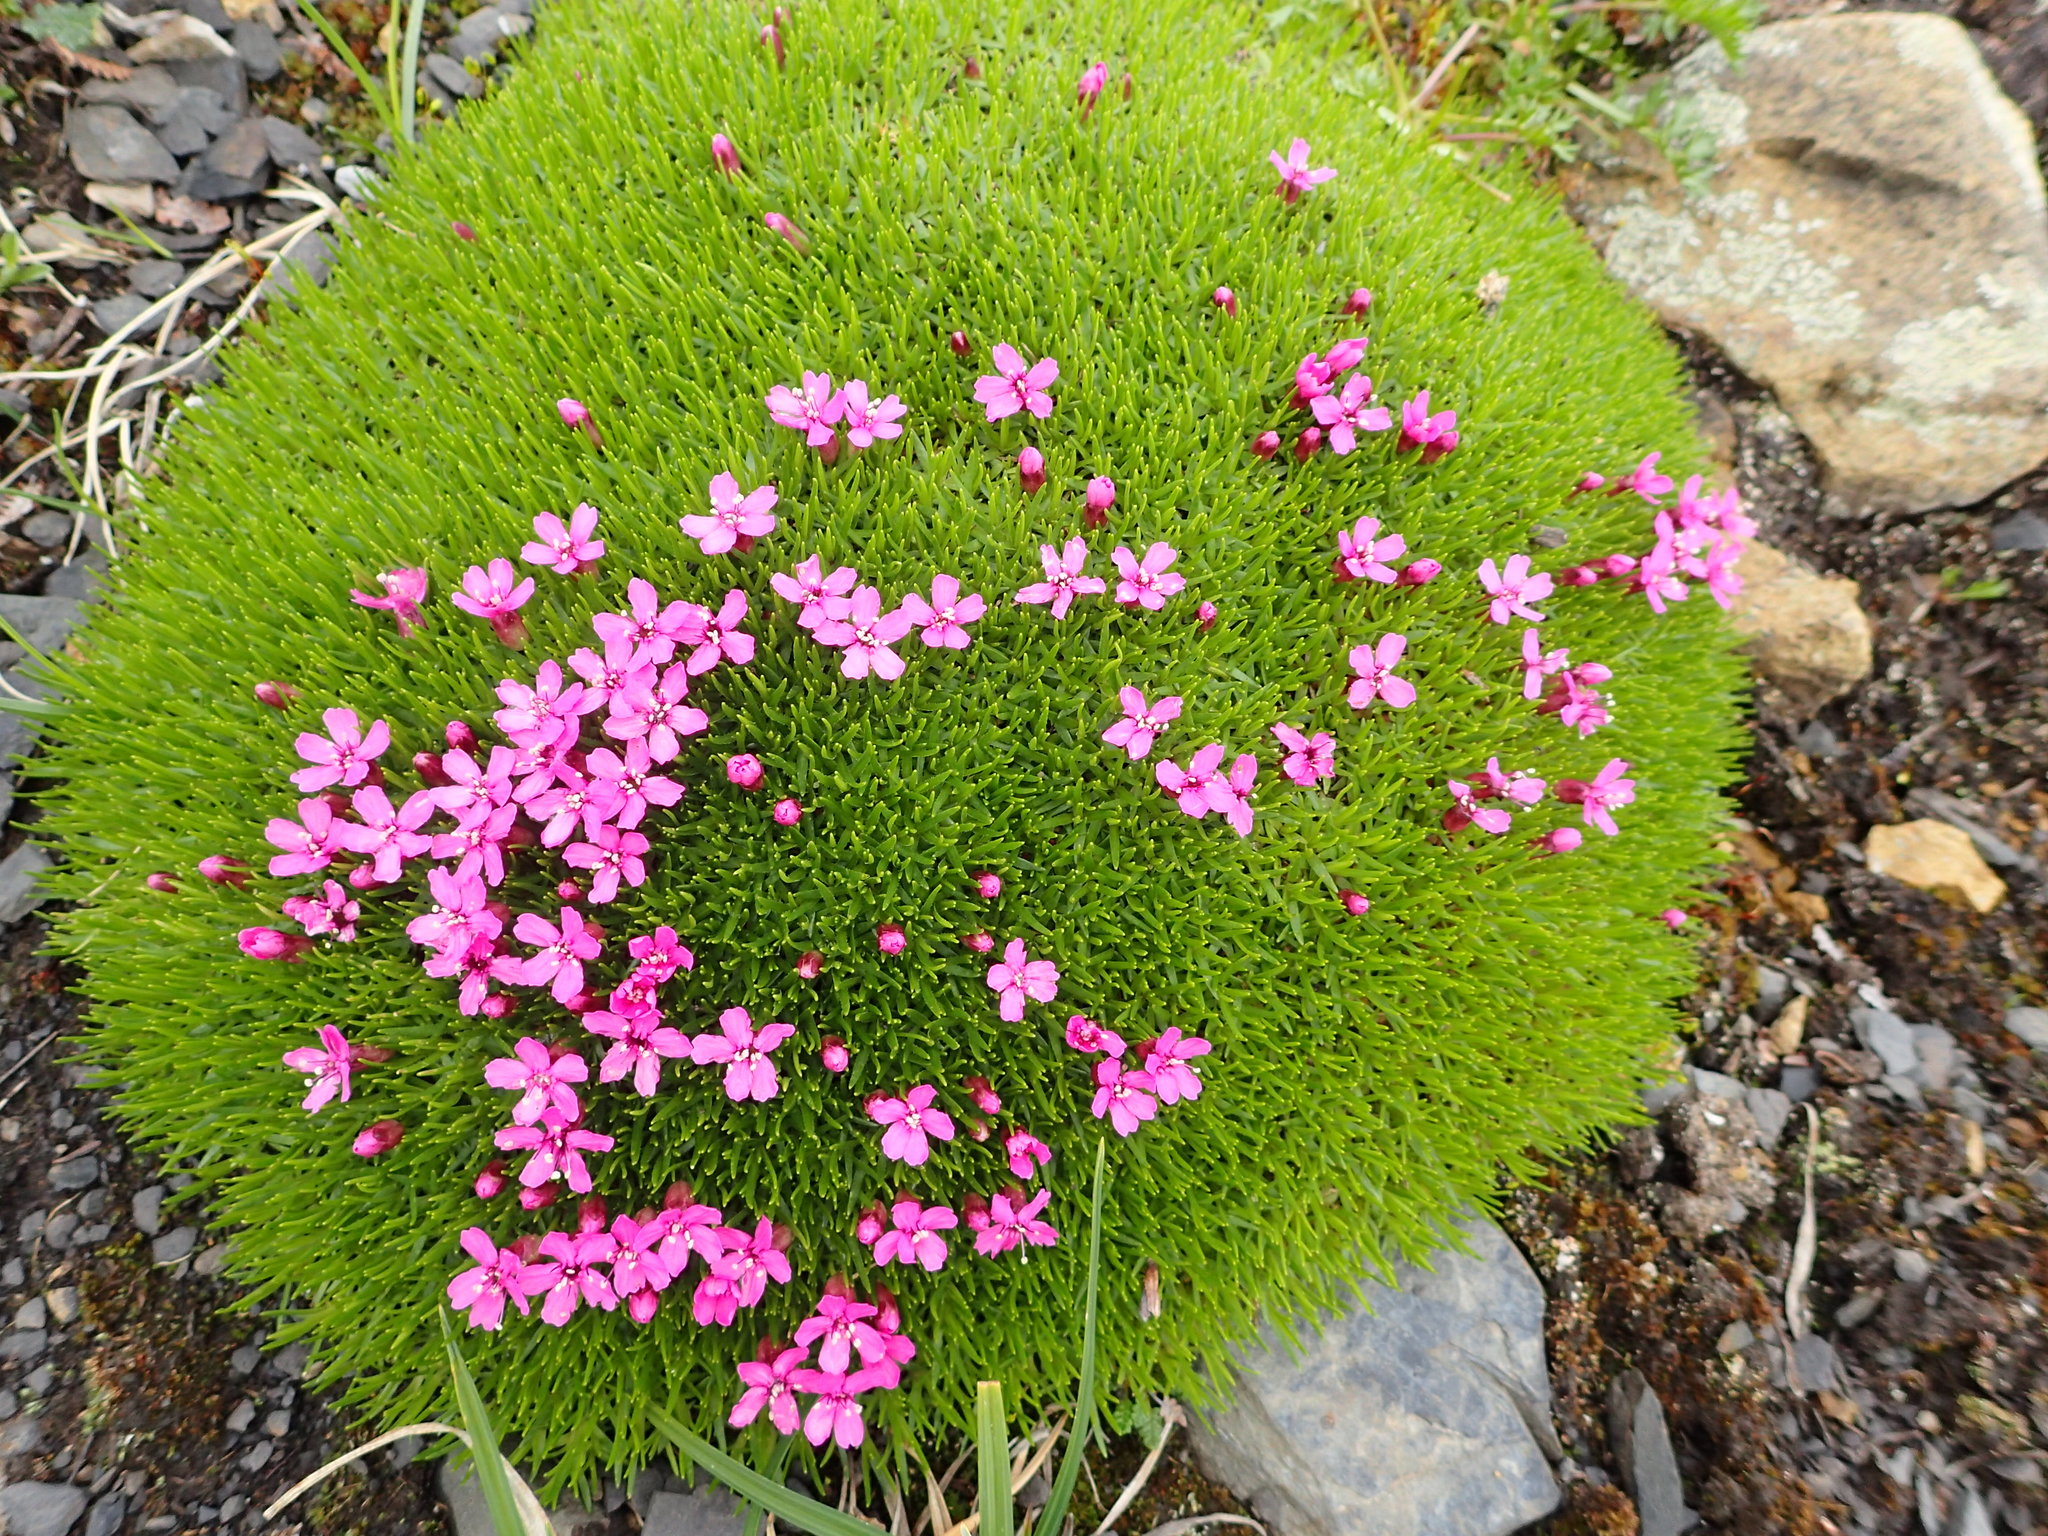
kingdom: Plantae
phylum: Tracheophyta
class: Magnoliopsida
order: Caryophyllales
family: Caryophyllaceae
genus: Silene
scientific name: Silene acaulis
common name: Moss campion
